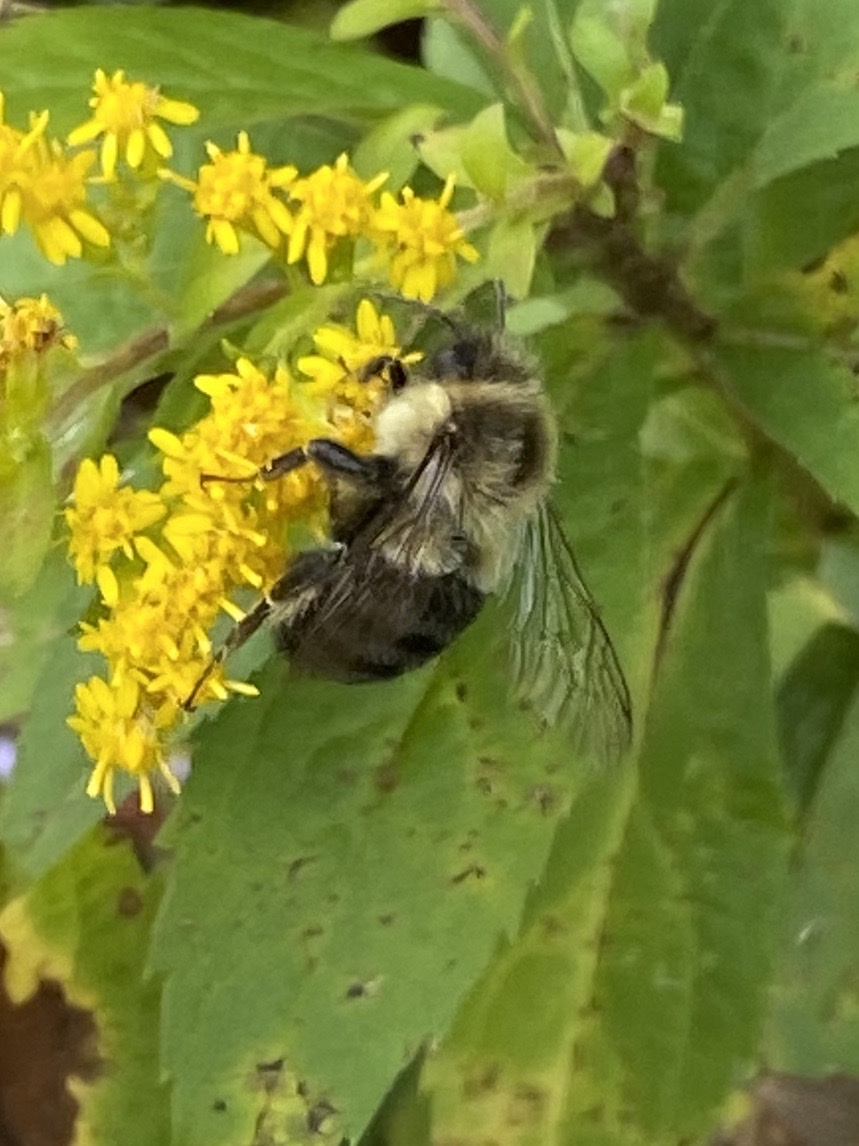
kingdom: Animalia
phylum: Arthropoda
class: Insecta
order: Hymenoptera
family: Apidae
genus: Bombus
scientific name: Bombus impatiens
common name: Common eastern bumble bee
